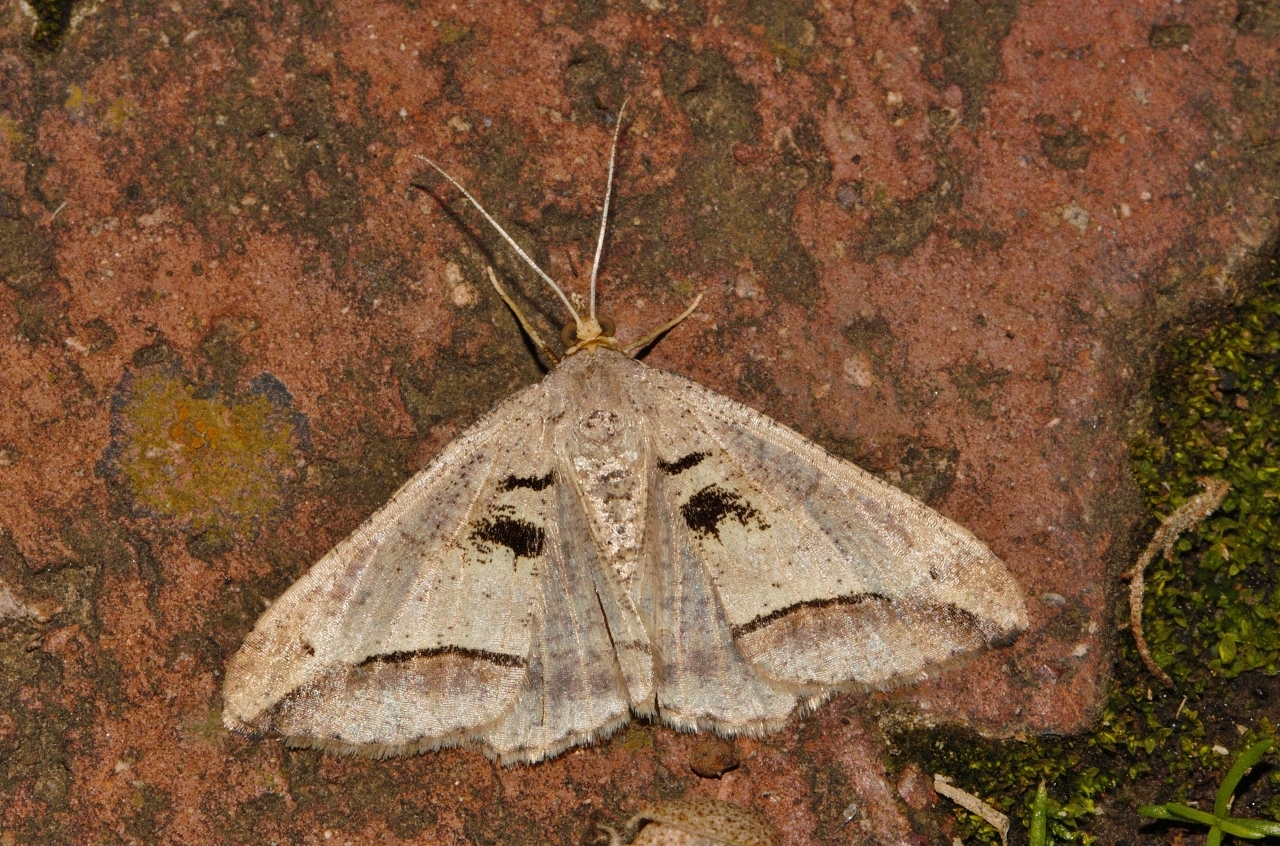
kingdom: Animalia
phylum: Arthropoda
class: Insecta
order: Lepidoptera
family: Geometridae
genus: Chiasmia
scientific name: Chiasmia subcurvaria
